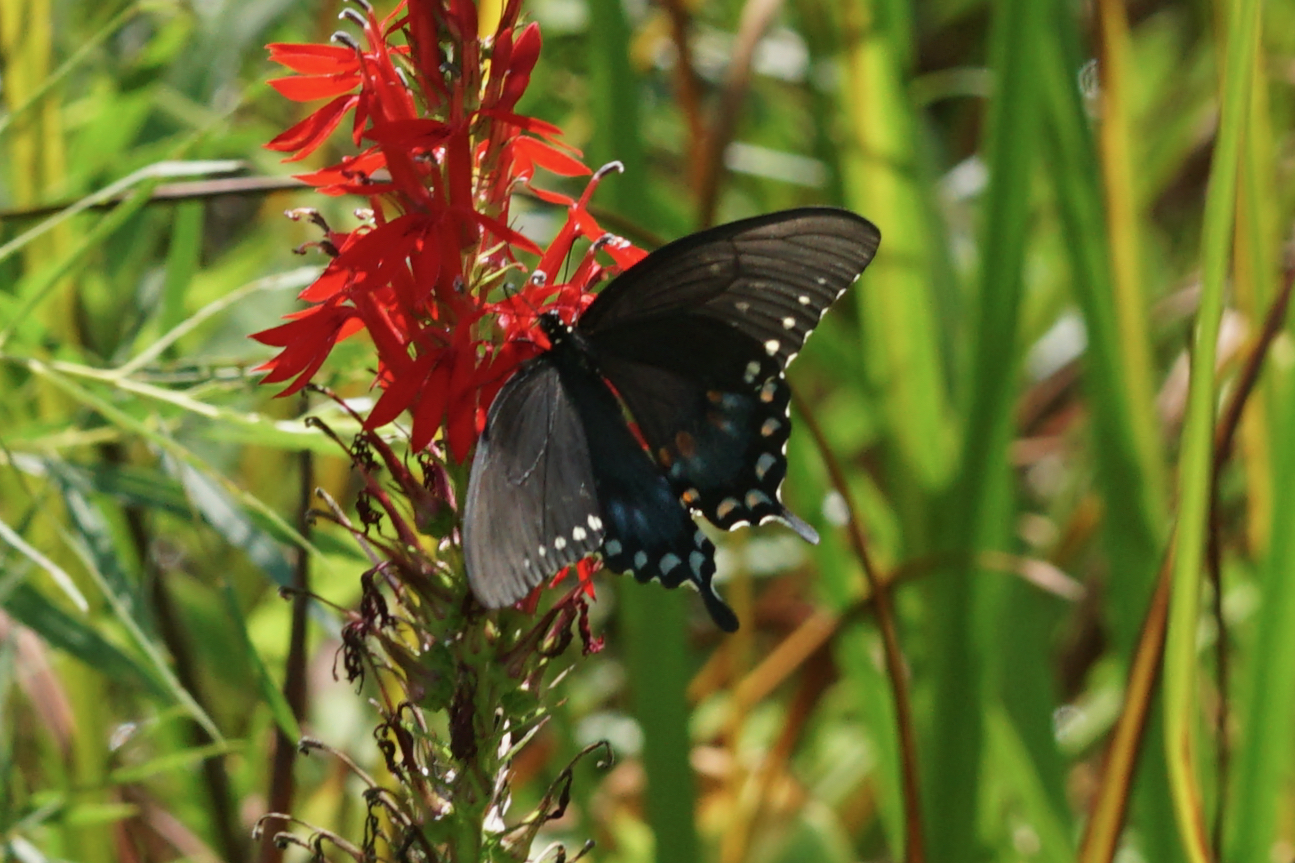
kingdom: Animalia
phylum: Arthropoda
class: Insecta
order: Lepidoptera
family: Papilionidae
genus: Papilio
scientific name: Papilio troilus
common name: Spicebush swallowtail
